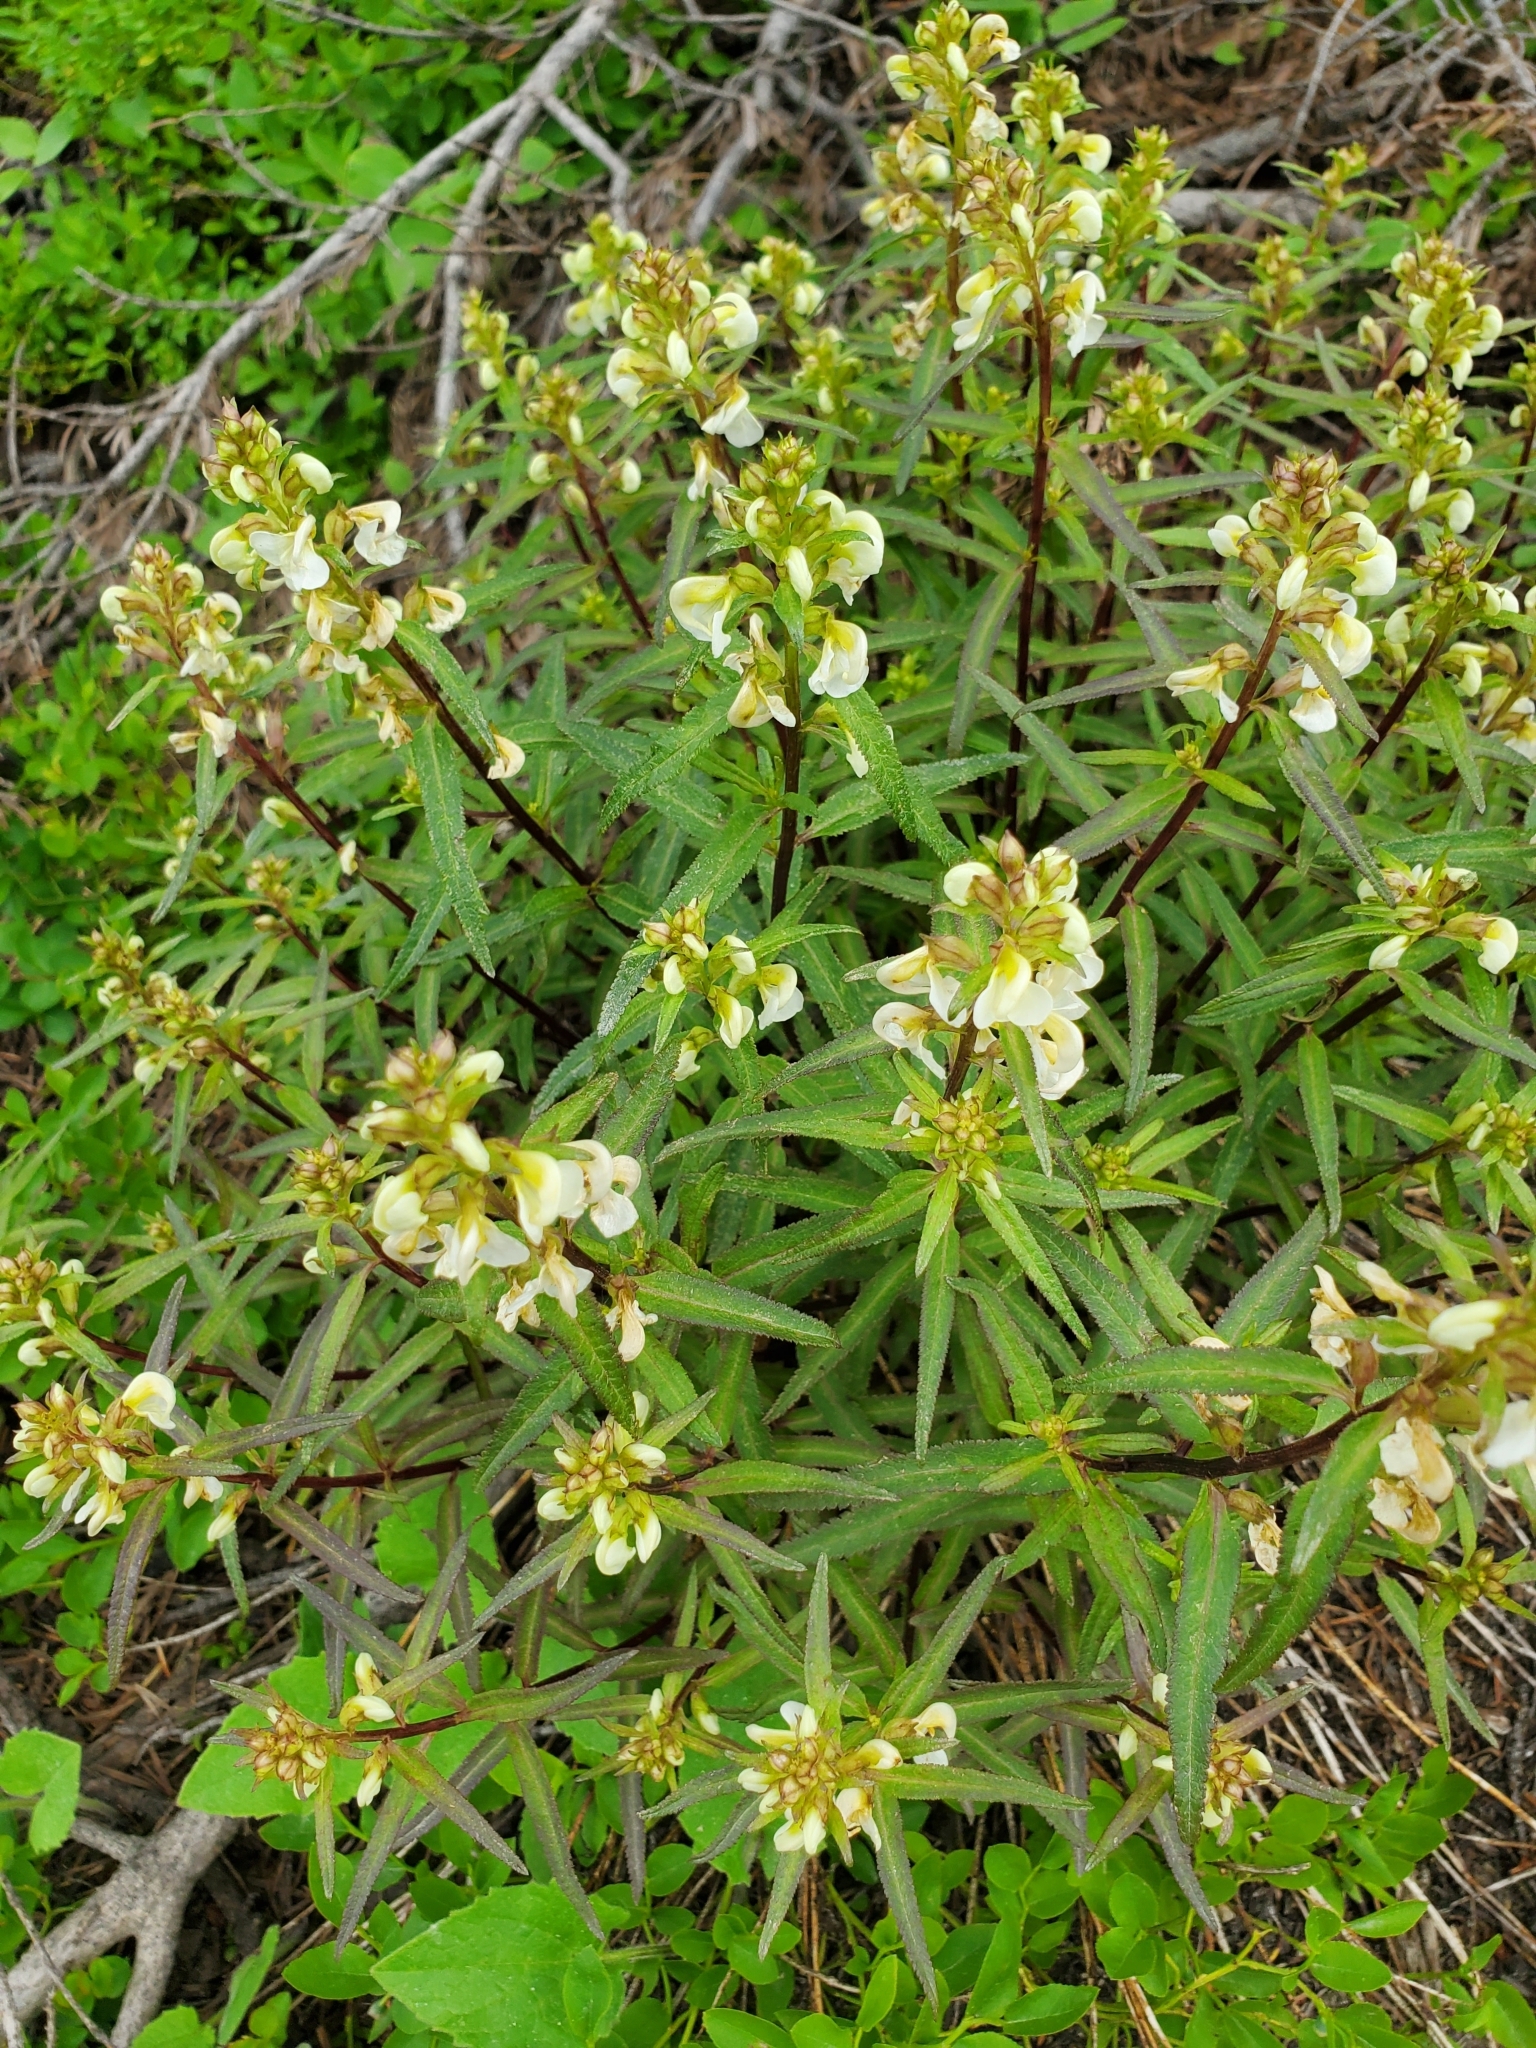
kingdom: Plantae
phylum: Tracheophyta
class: Magnoliopsida
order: Lamiales
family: Orobanchaceae
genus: Pedicularis
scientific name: Pedicularis racemosa
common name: Leafy lousewort
